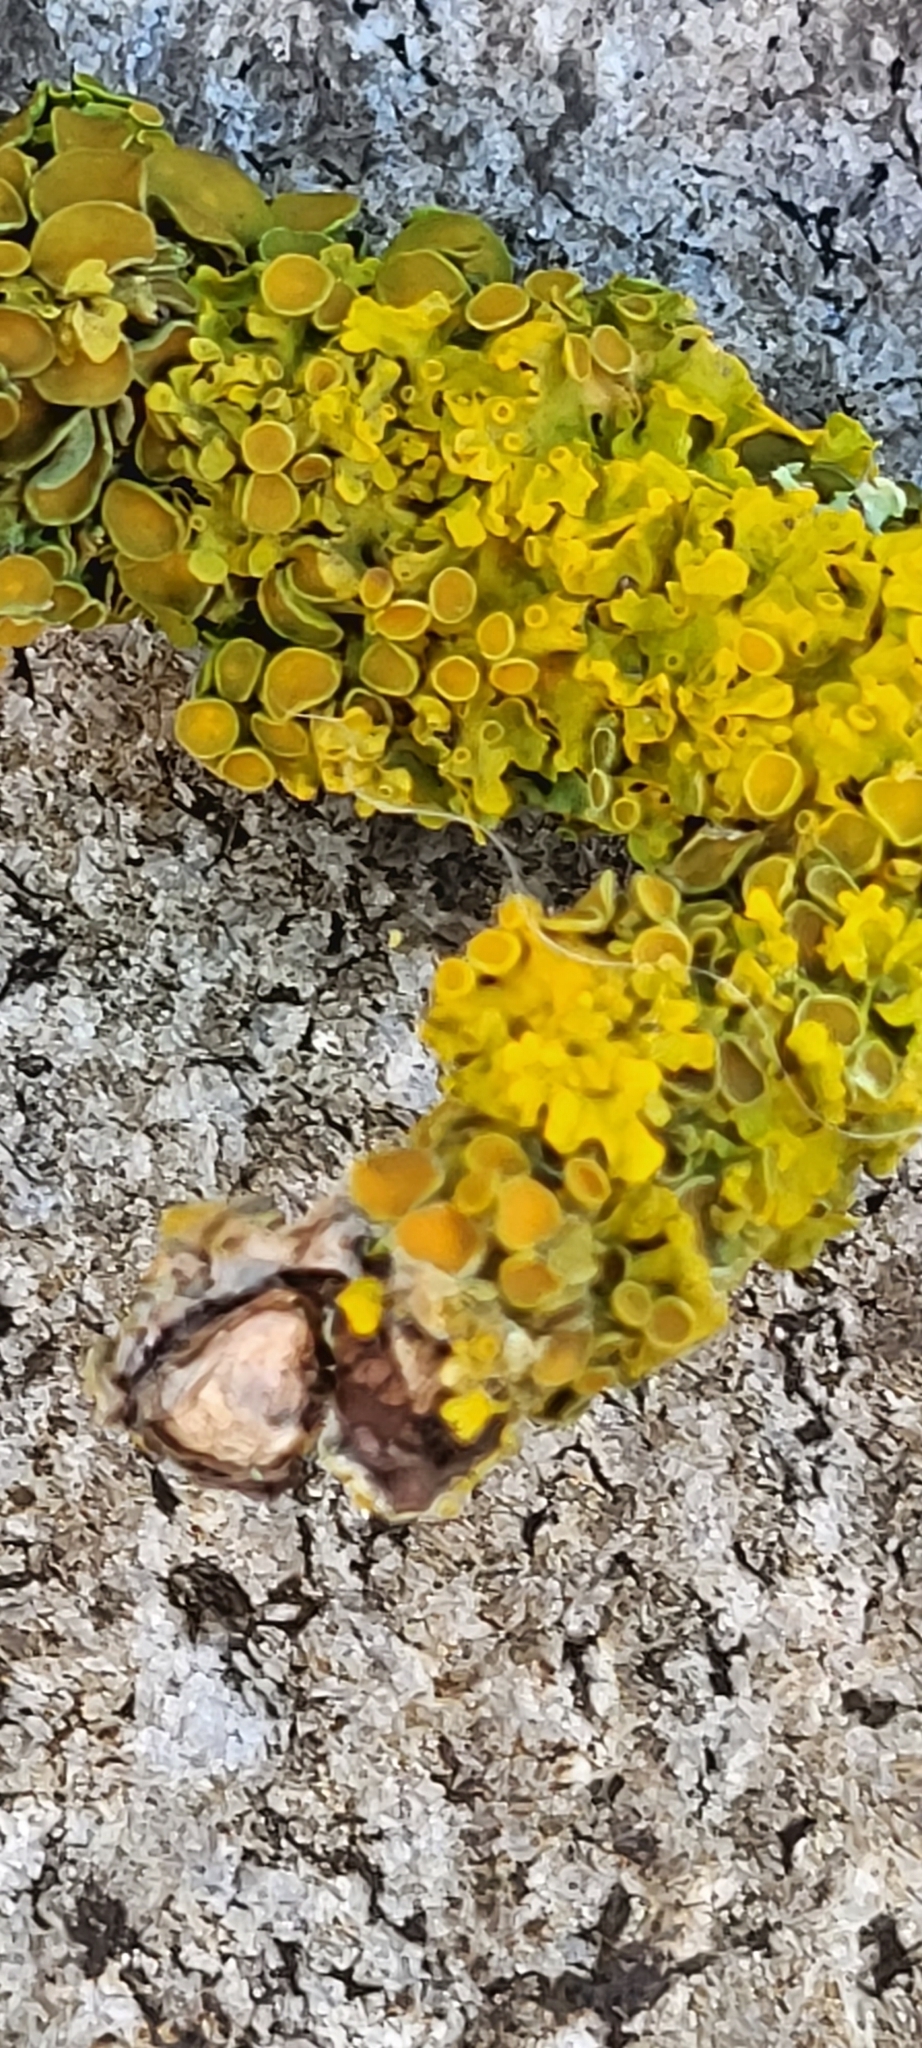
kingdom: Fungi
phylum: Ascomycota
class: Lecanoromycetes
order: Teloschistales
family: Teloschistaceae
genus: Xanthoria
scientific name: Xanthoria parietina
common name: Common orange lichen
